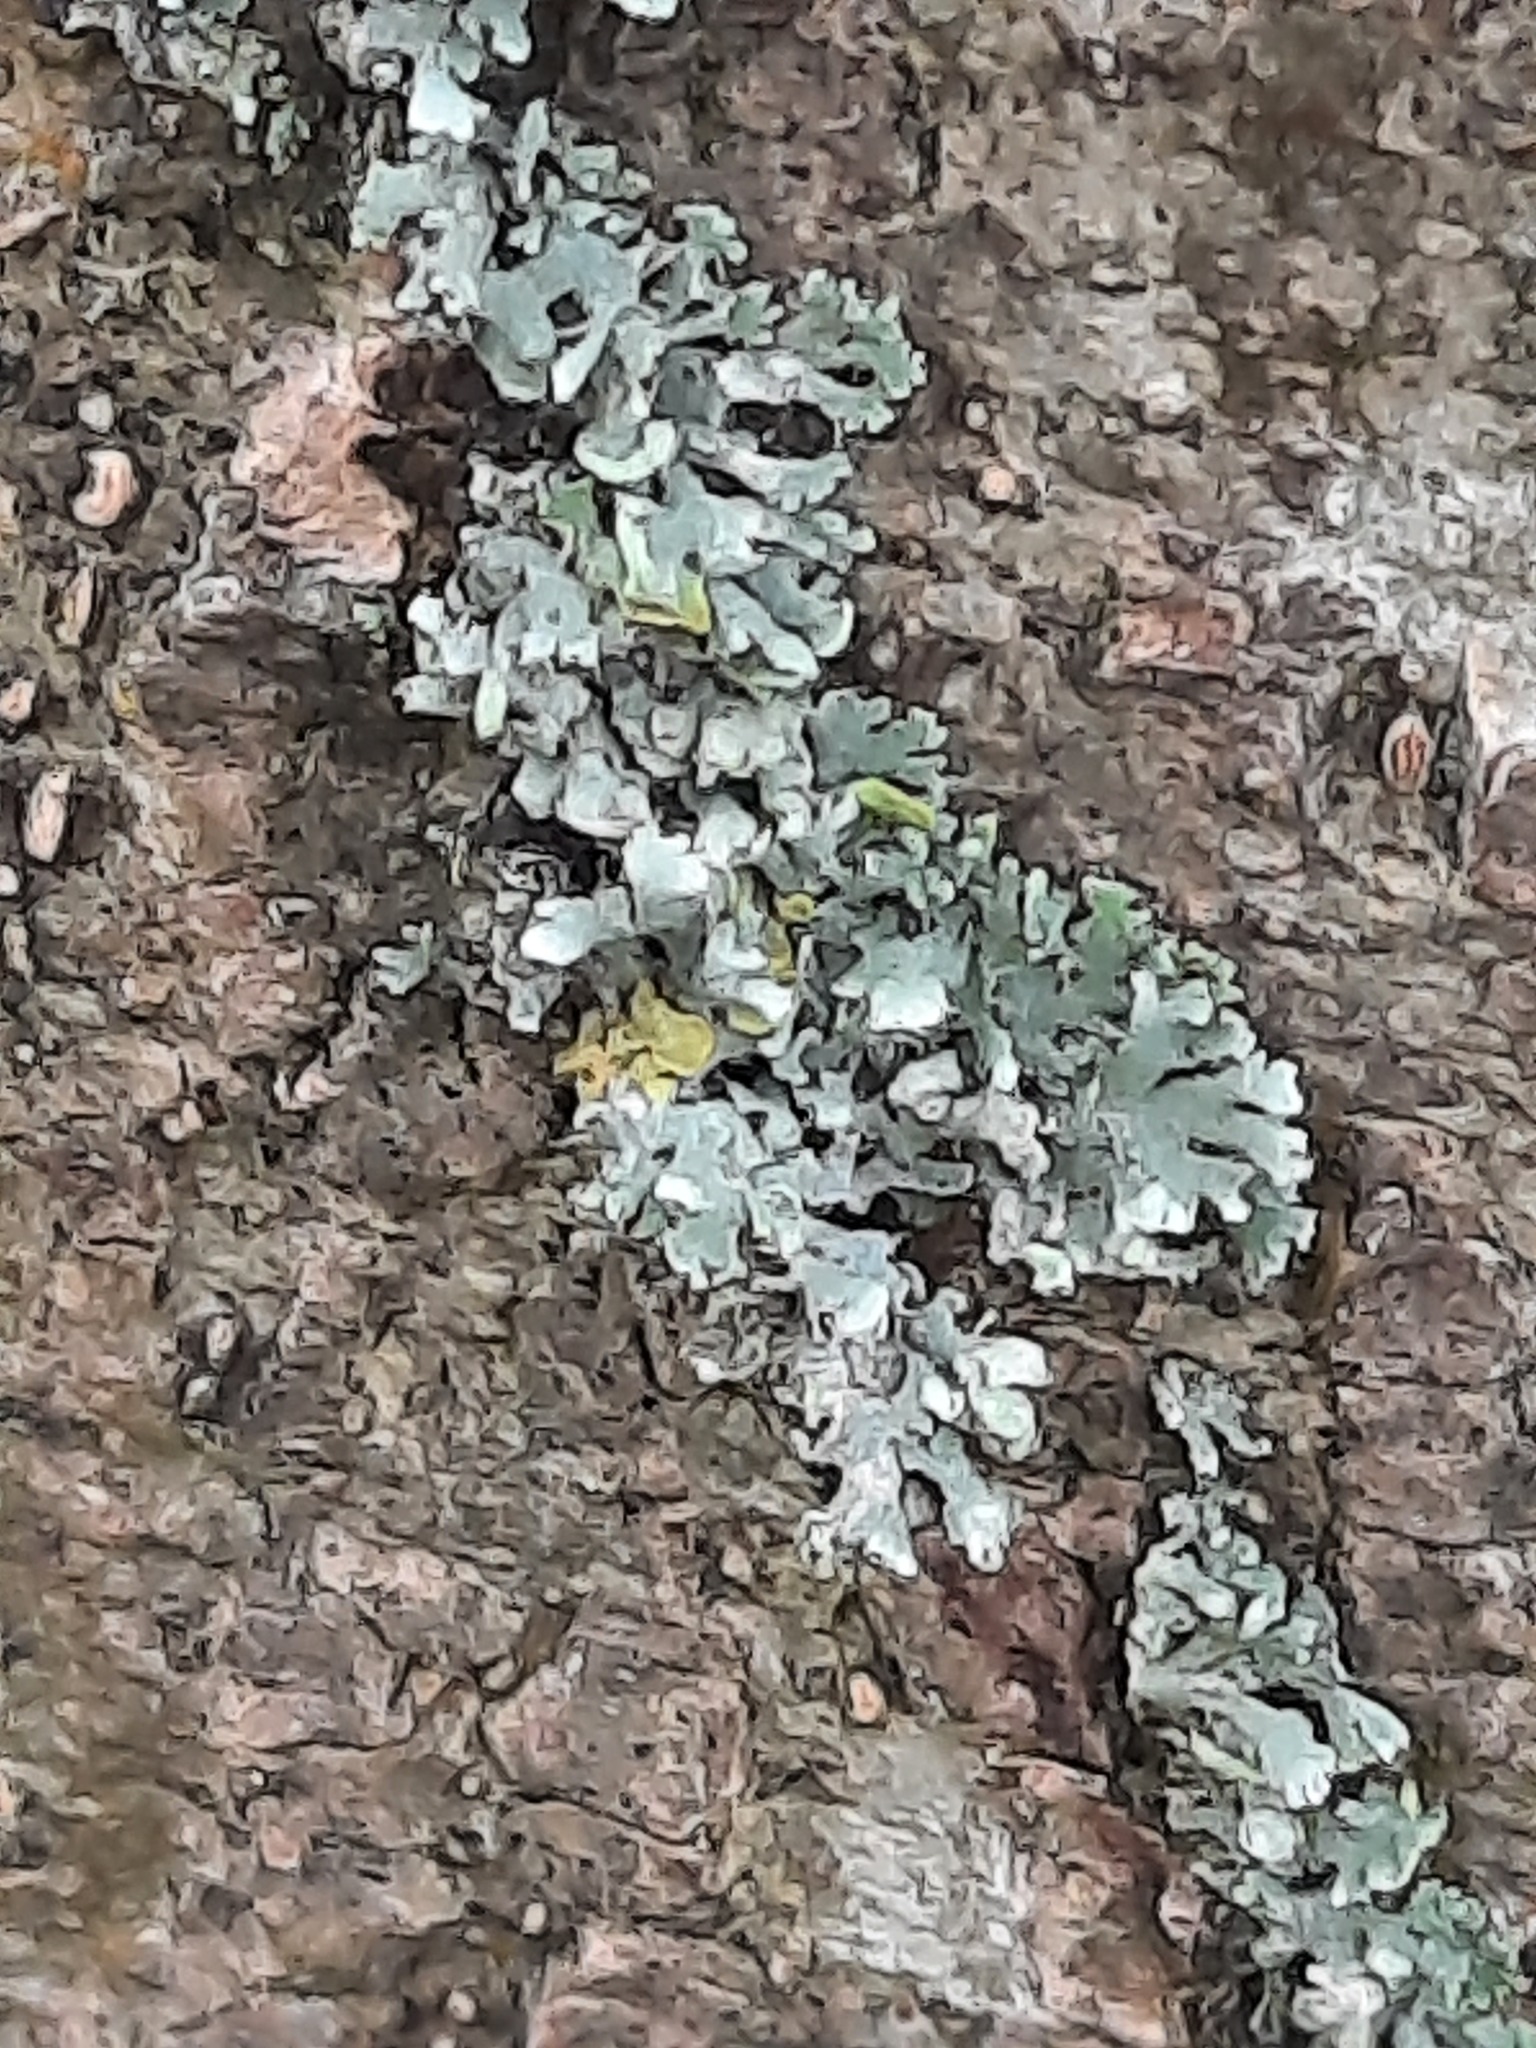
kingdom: Fungi
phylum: Ascomycota
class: Lecanoromycetes
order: Caliciales
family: Physciaceae
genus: Physcia
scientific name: Physcia adscendens
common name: Hooded rosette lichen
